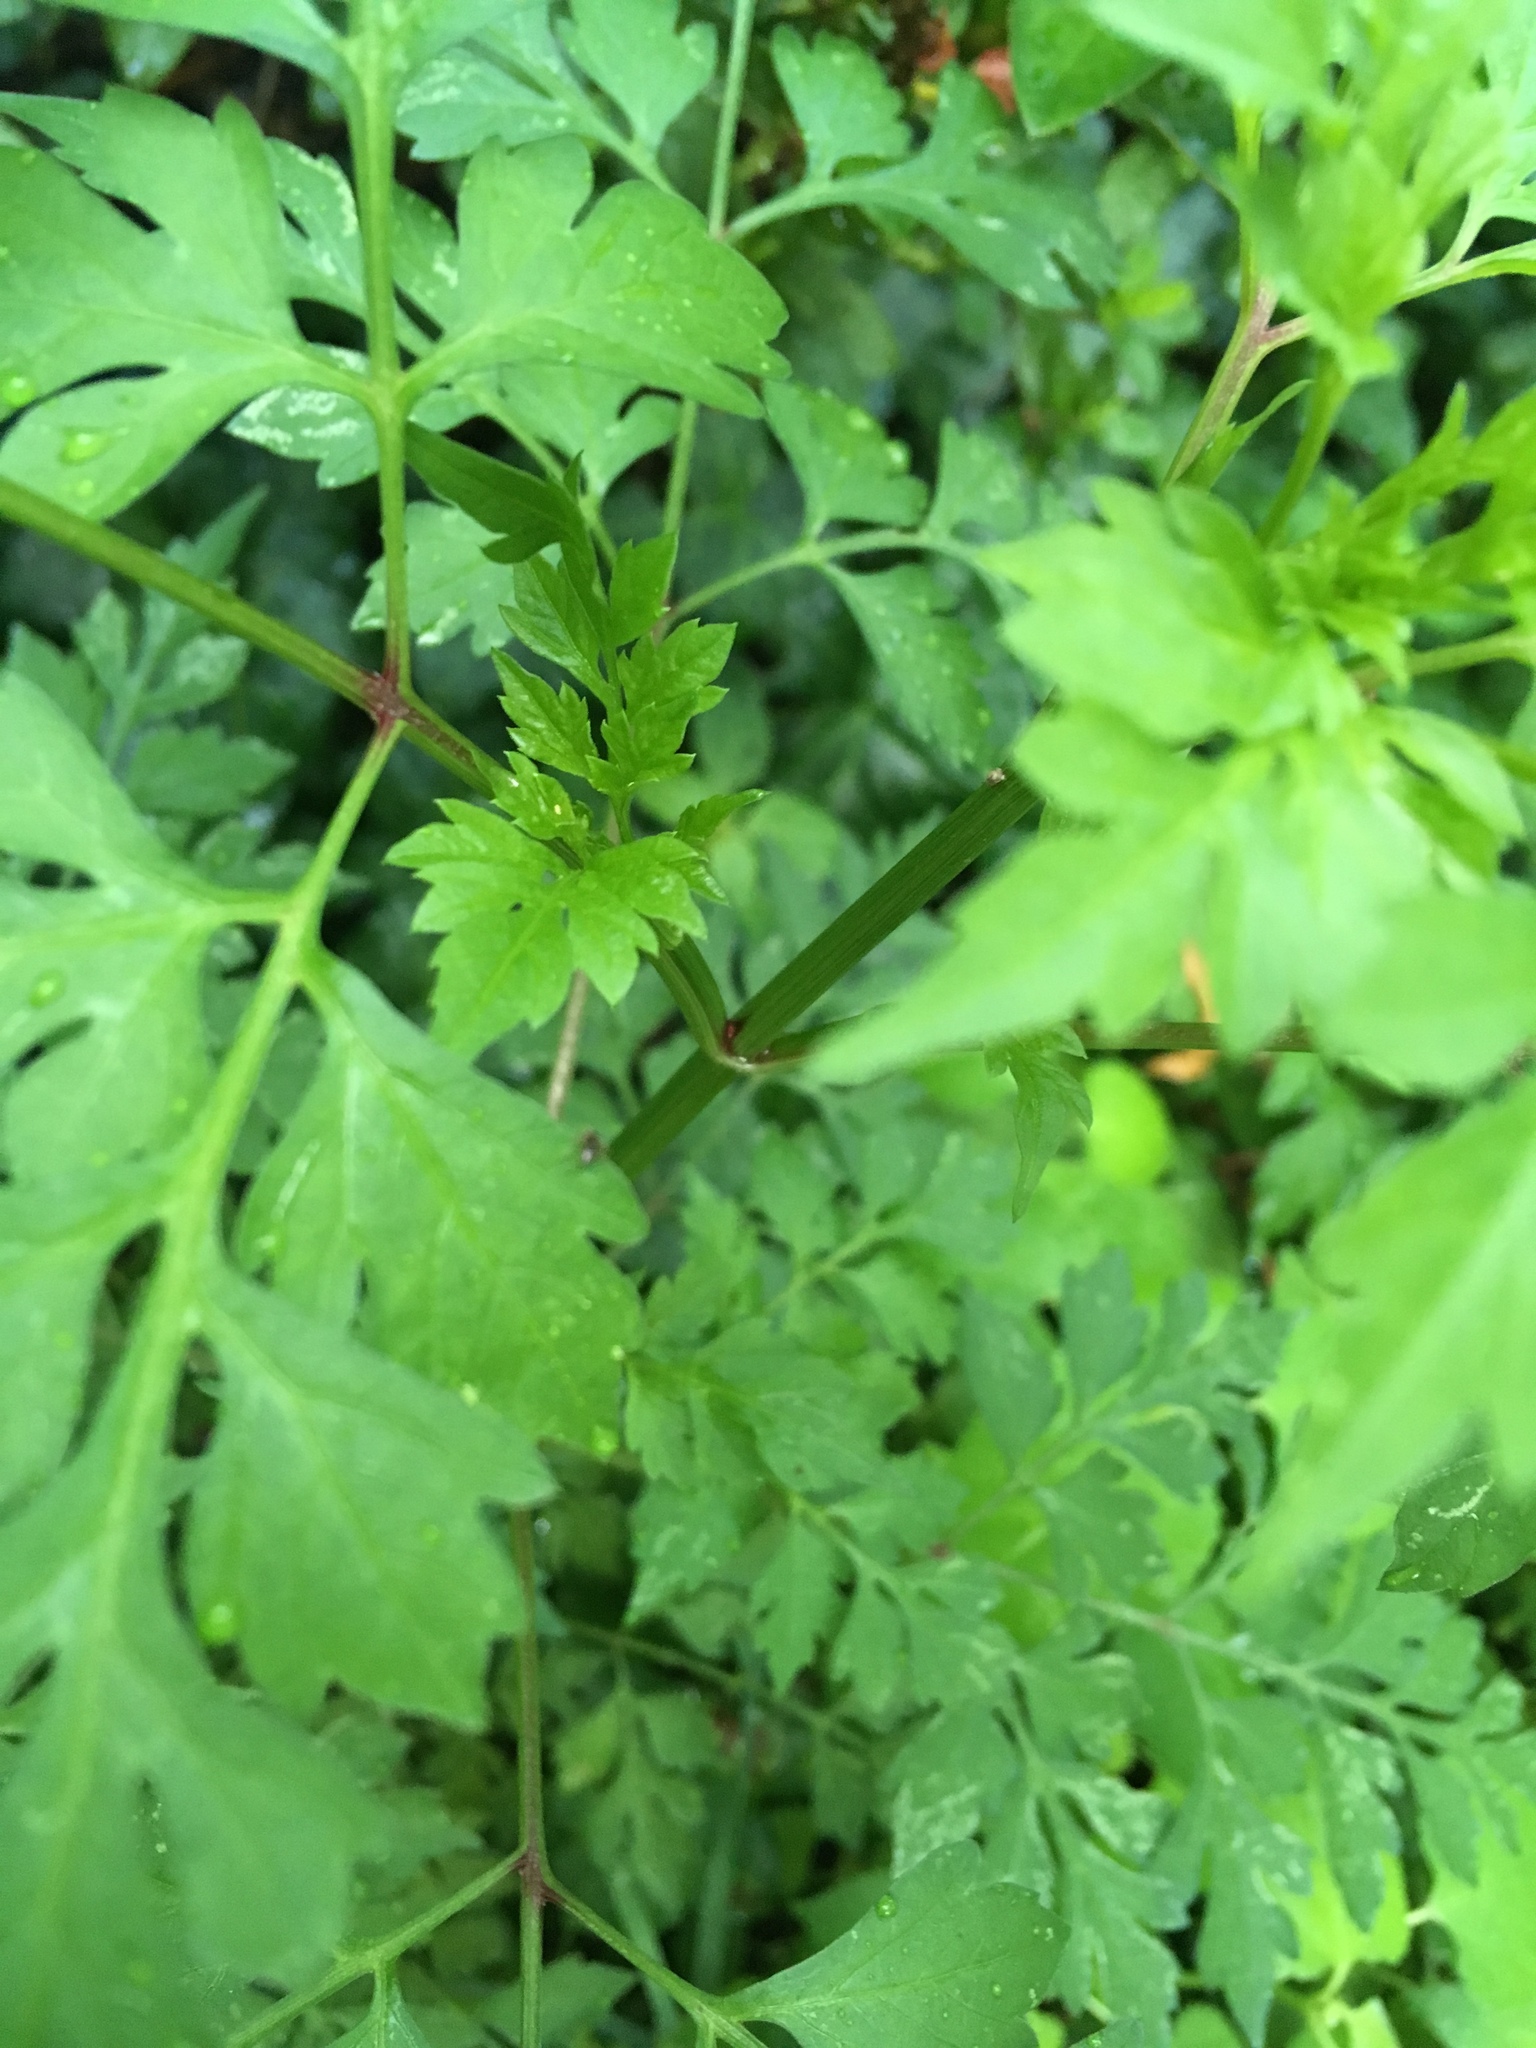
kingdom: Plantae
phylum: Tracheophyta
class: Magnoliopsida
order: Asterales
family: Asteraceae
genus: Bidens
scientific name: Bidens bipinnata
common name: Spanish-needles
